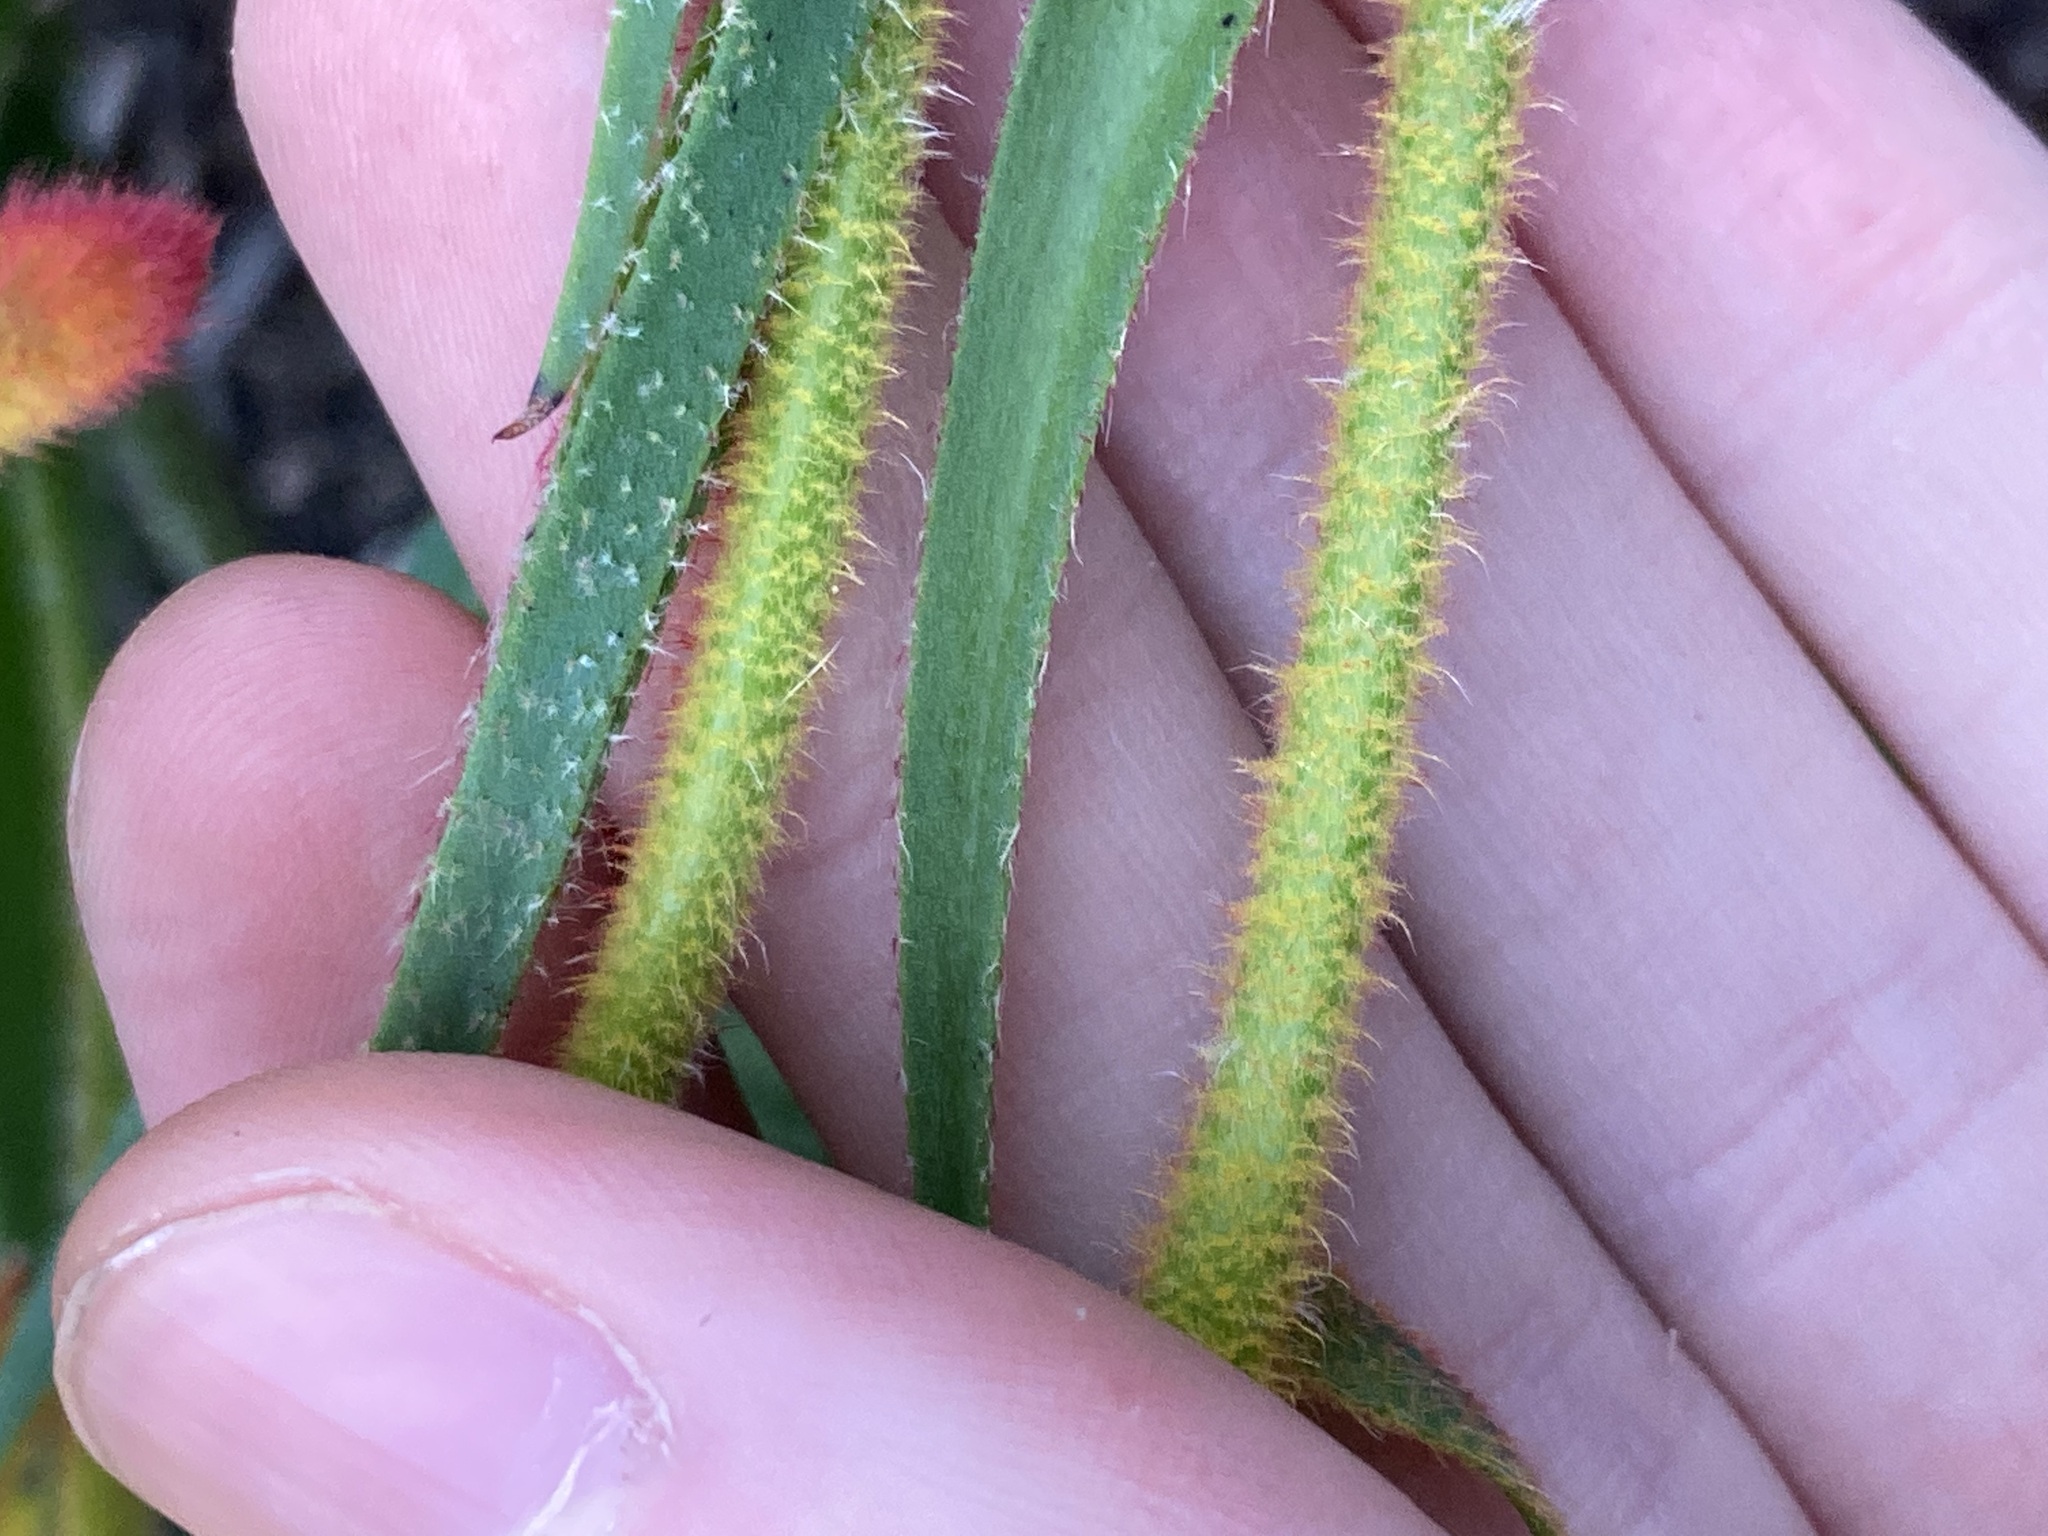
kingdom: Plantae
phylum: Tracheophyta
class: Liliopsida
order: Commelinales
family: Haemodoraceae
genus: Anigozanthos
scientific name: Anigozanthos humilis
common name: Cat's-paw
